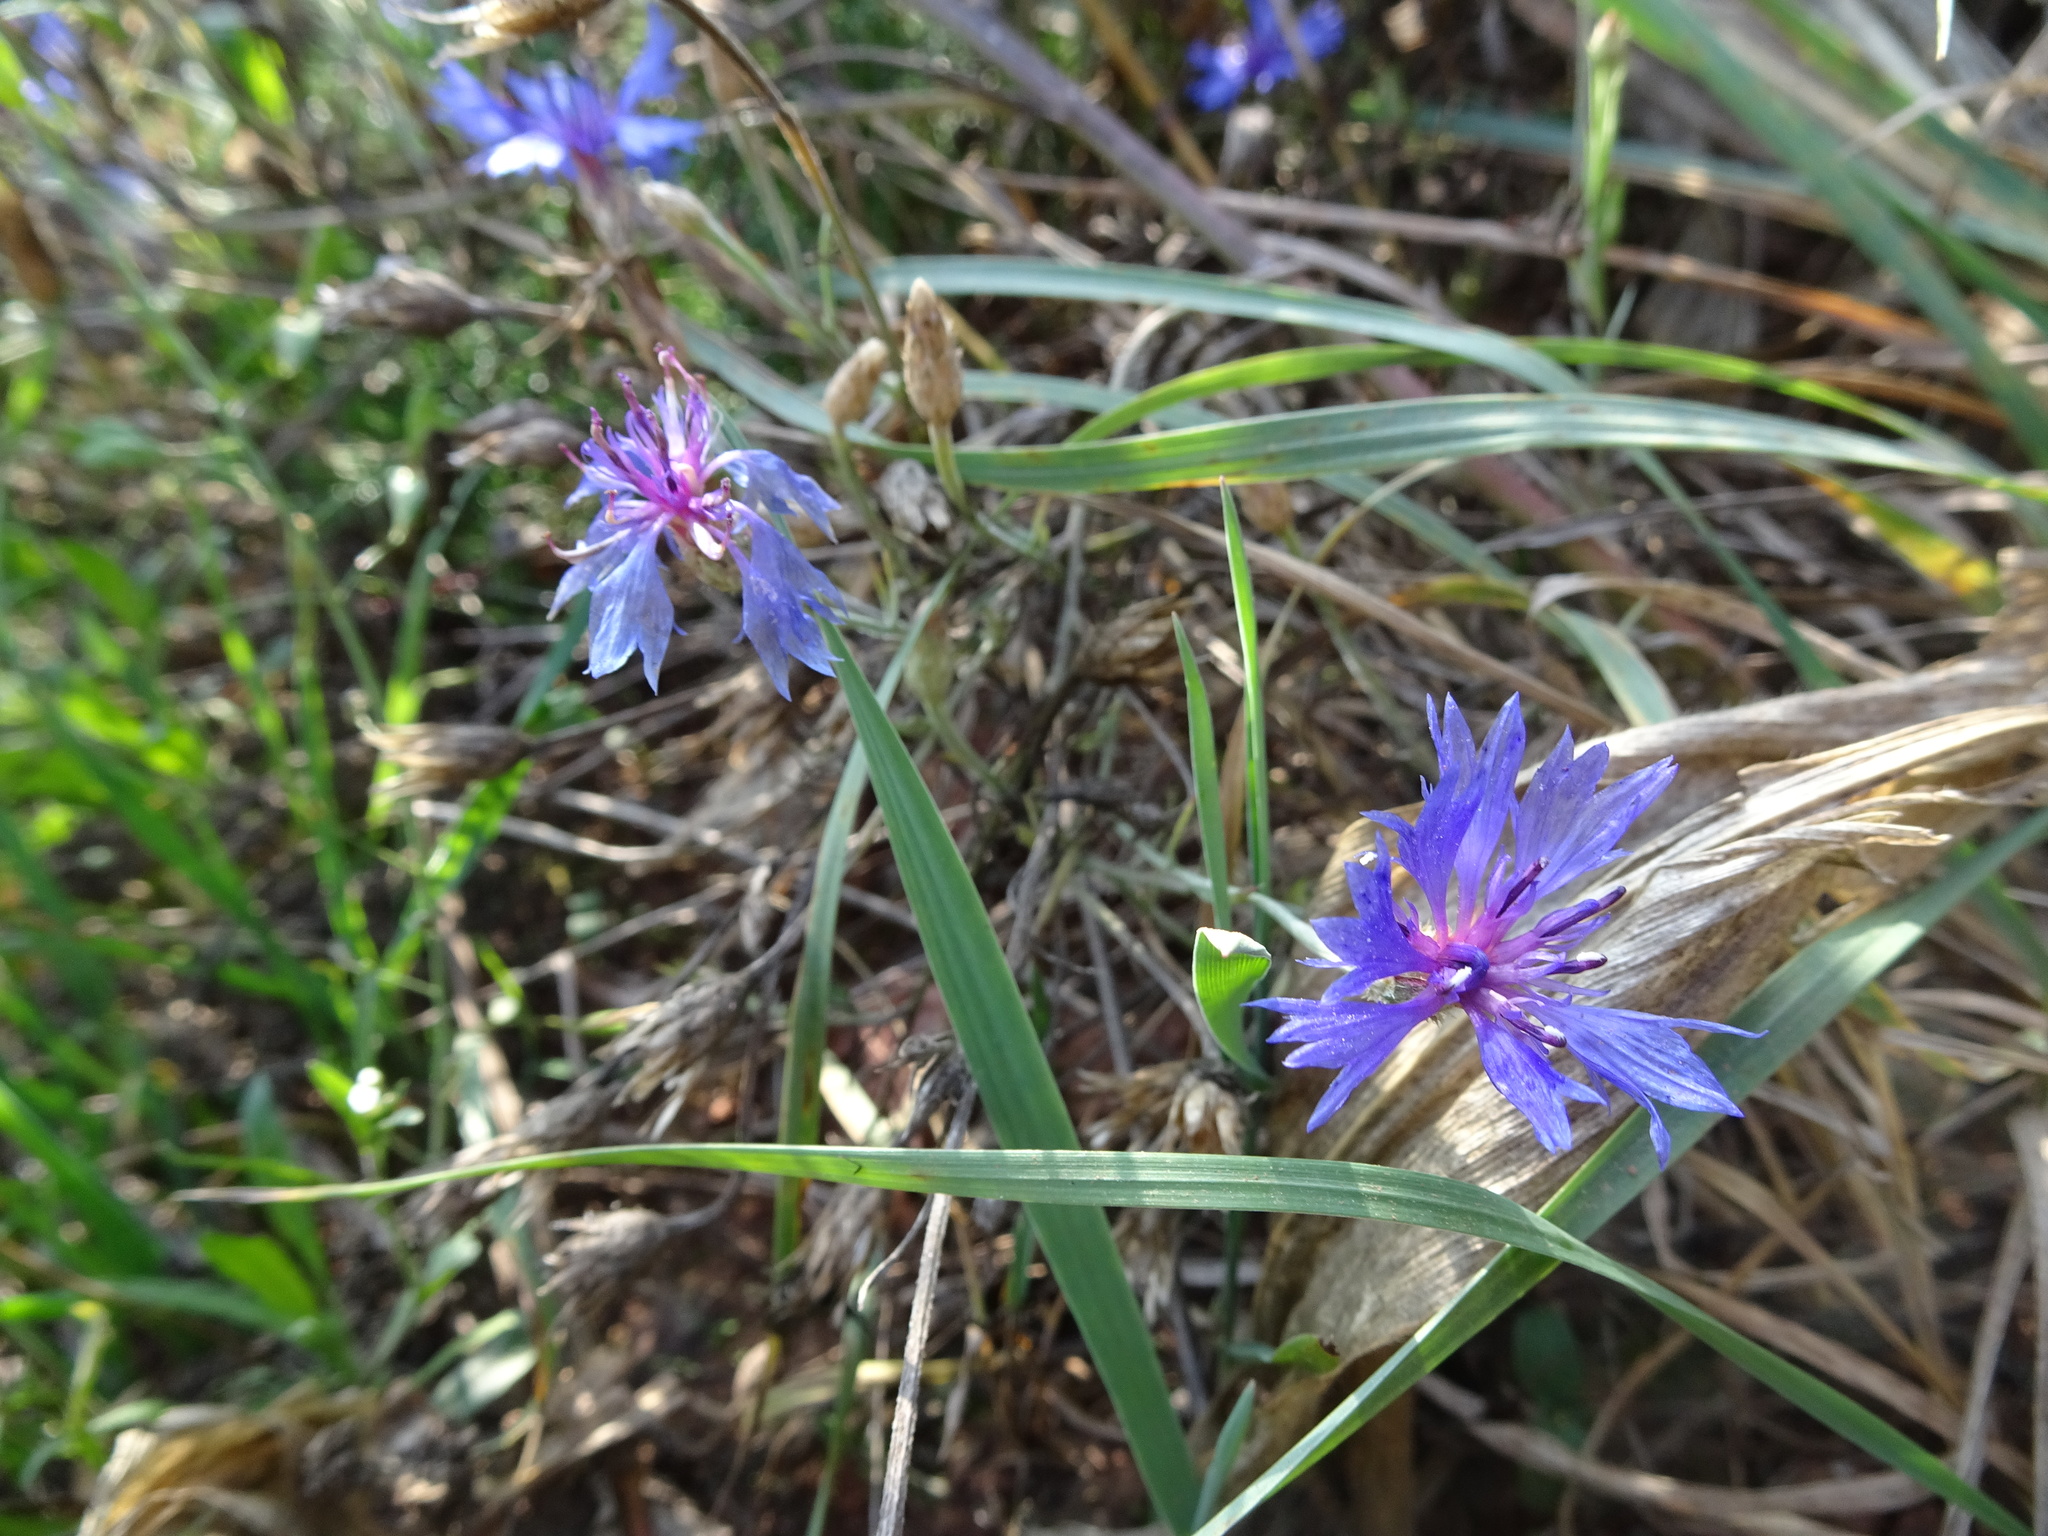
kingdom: Plantae
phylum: Tracheophyta
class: Magnoliopsida
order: Asterales
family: Asteraceae
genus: Centaurea
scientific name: Centaurea cyanus
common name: Cornflower
